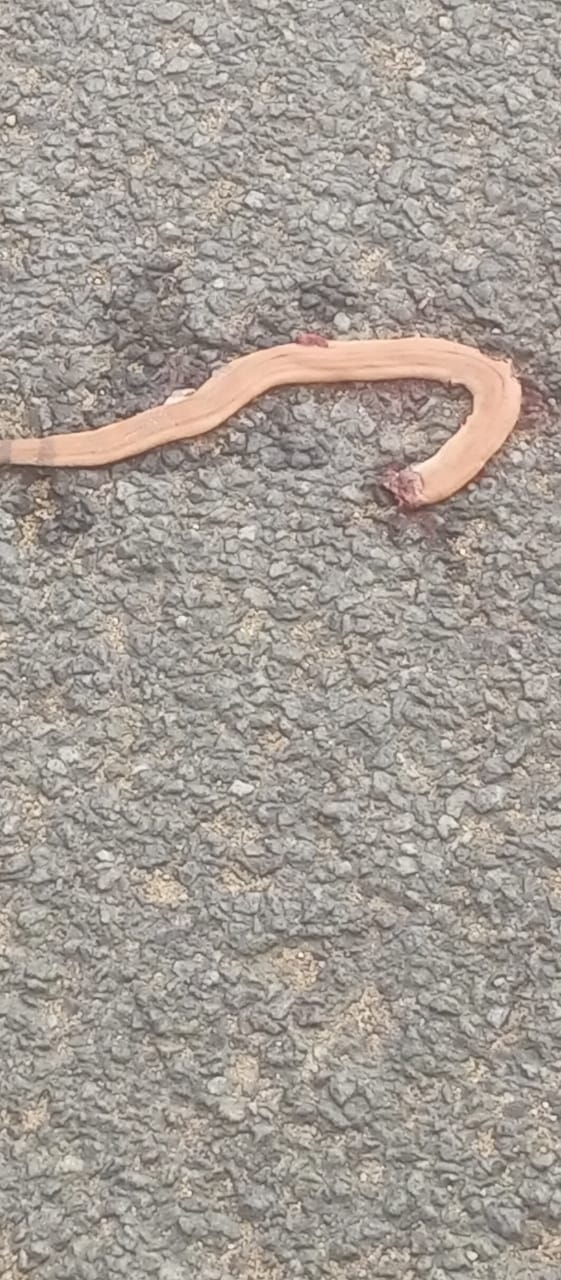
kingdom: Animalia
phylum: Chordata
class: Squamata
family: Boidae
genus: Eryx
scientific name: Eryx johnii
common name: Brown sand boa
